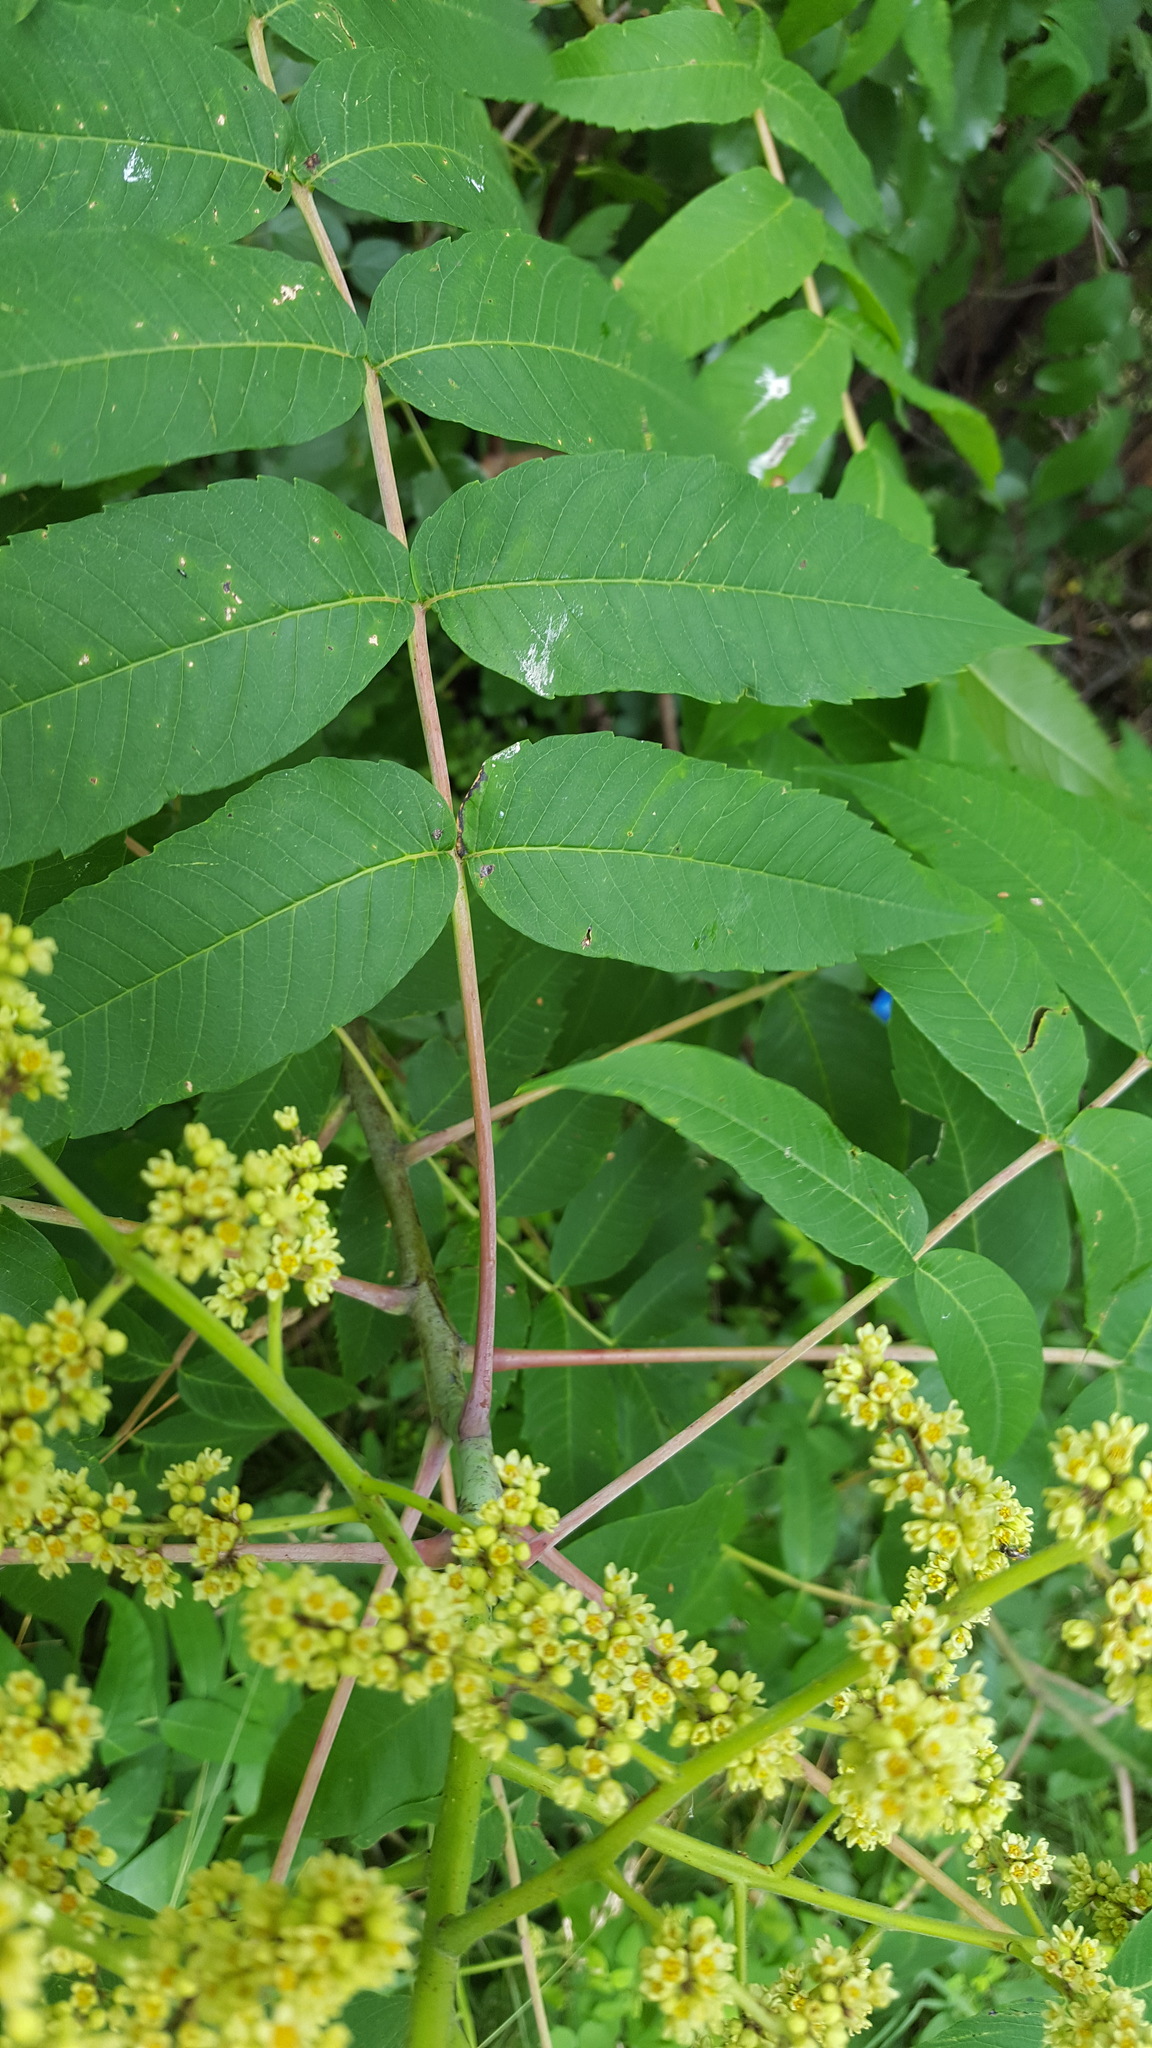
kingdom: Plantae
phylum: Tracheophyta
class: Magnoliopsida
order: Sapindales
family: Anacardiaceae
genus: Rhus
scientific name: Rhus glabra
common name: Scarlet sumac
